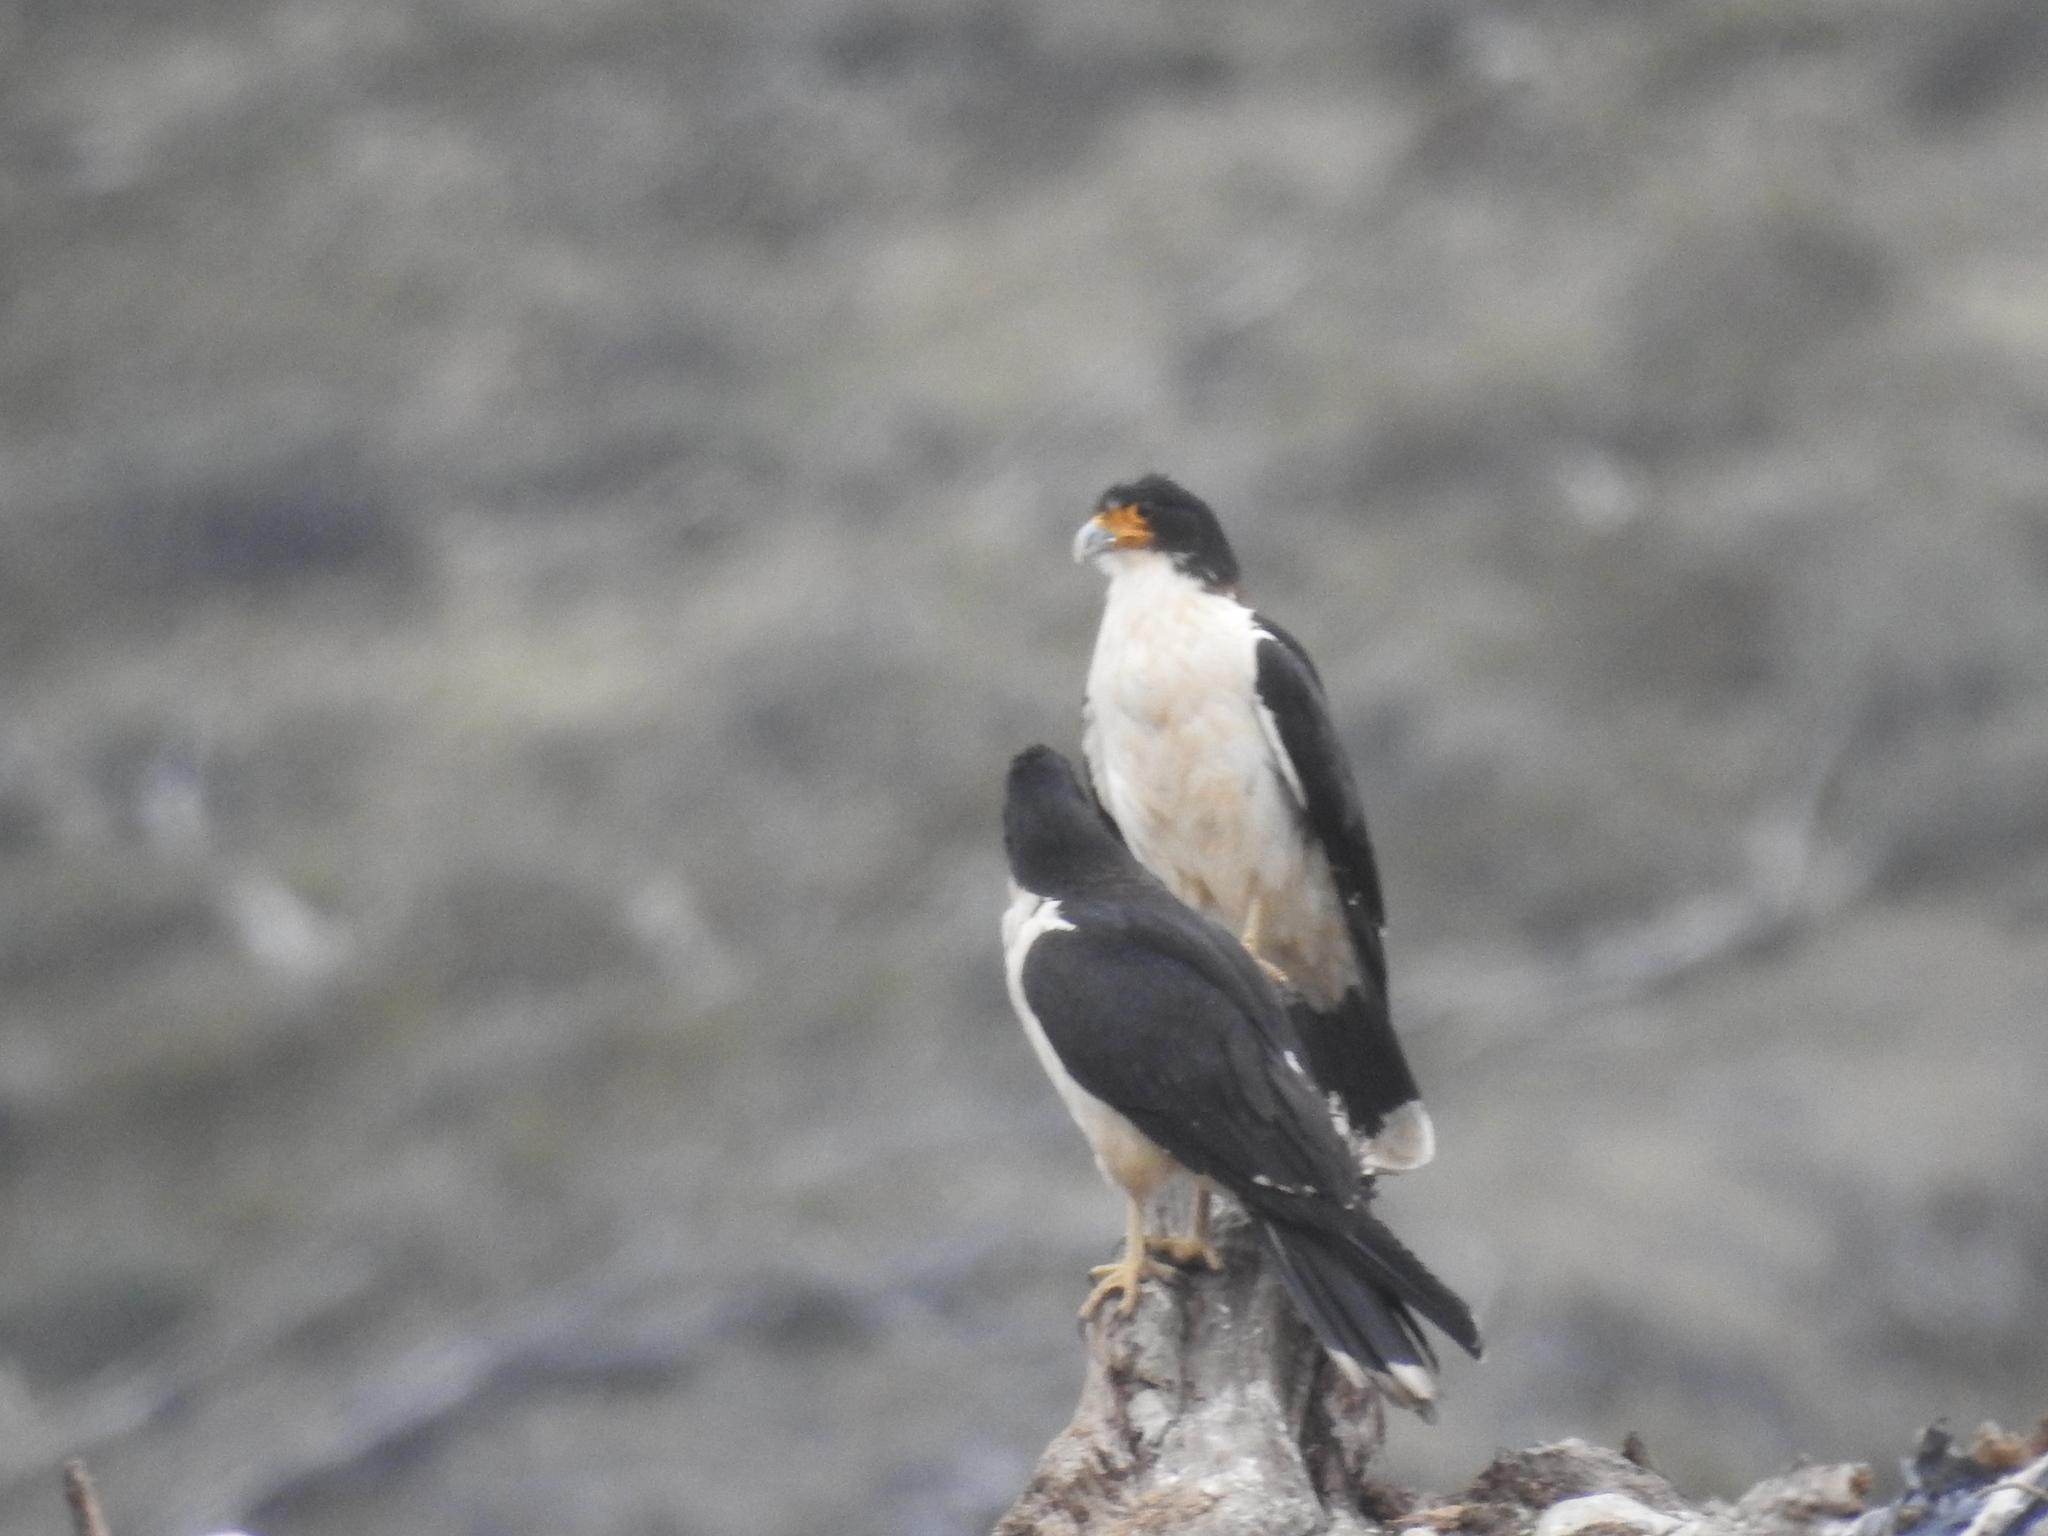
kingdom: Animalia
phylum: Chordata
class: Aves
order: Falconiformes
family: Falconidae
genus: Daptrius
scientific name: Daptrius
